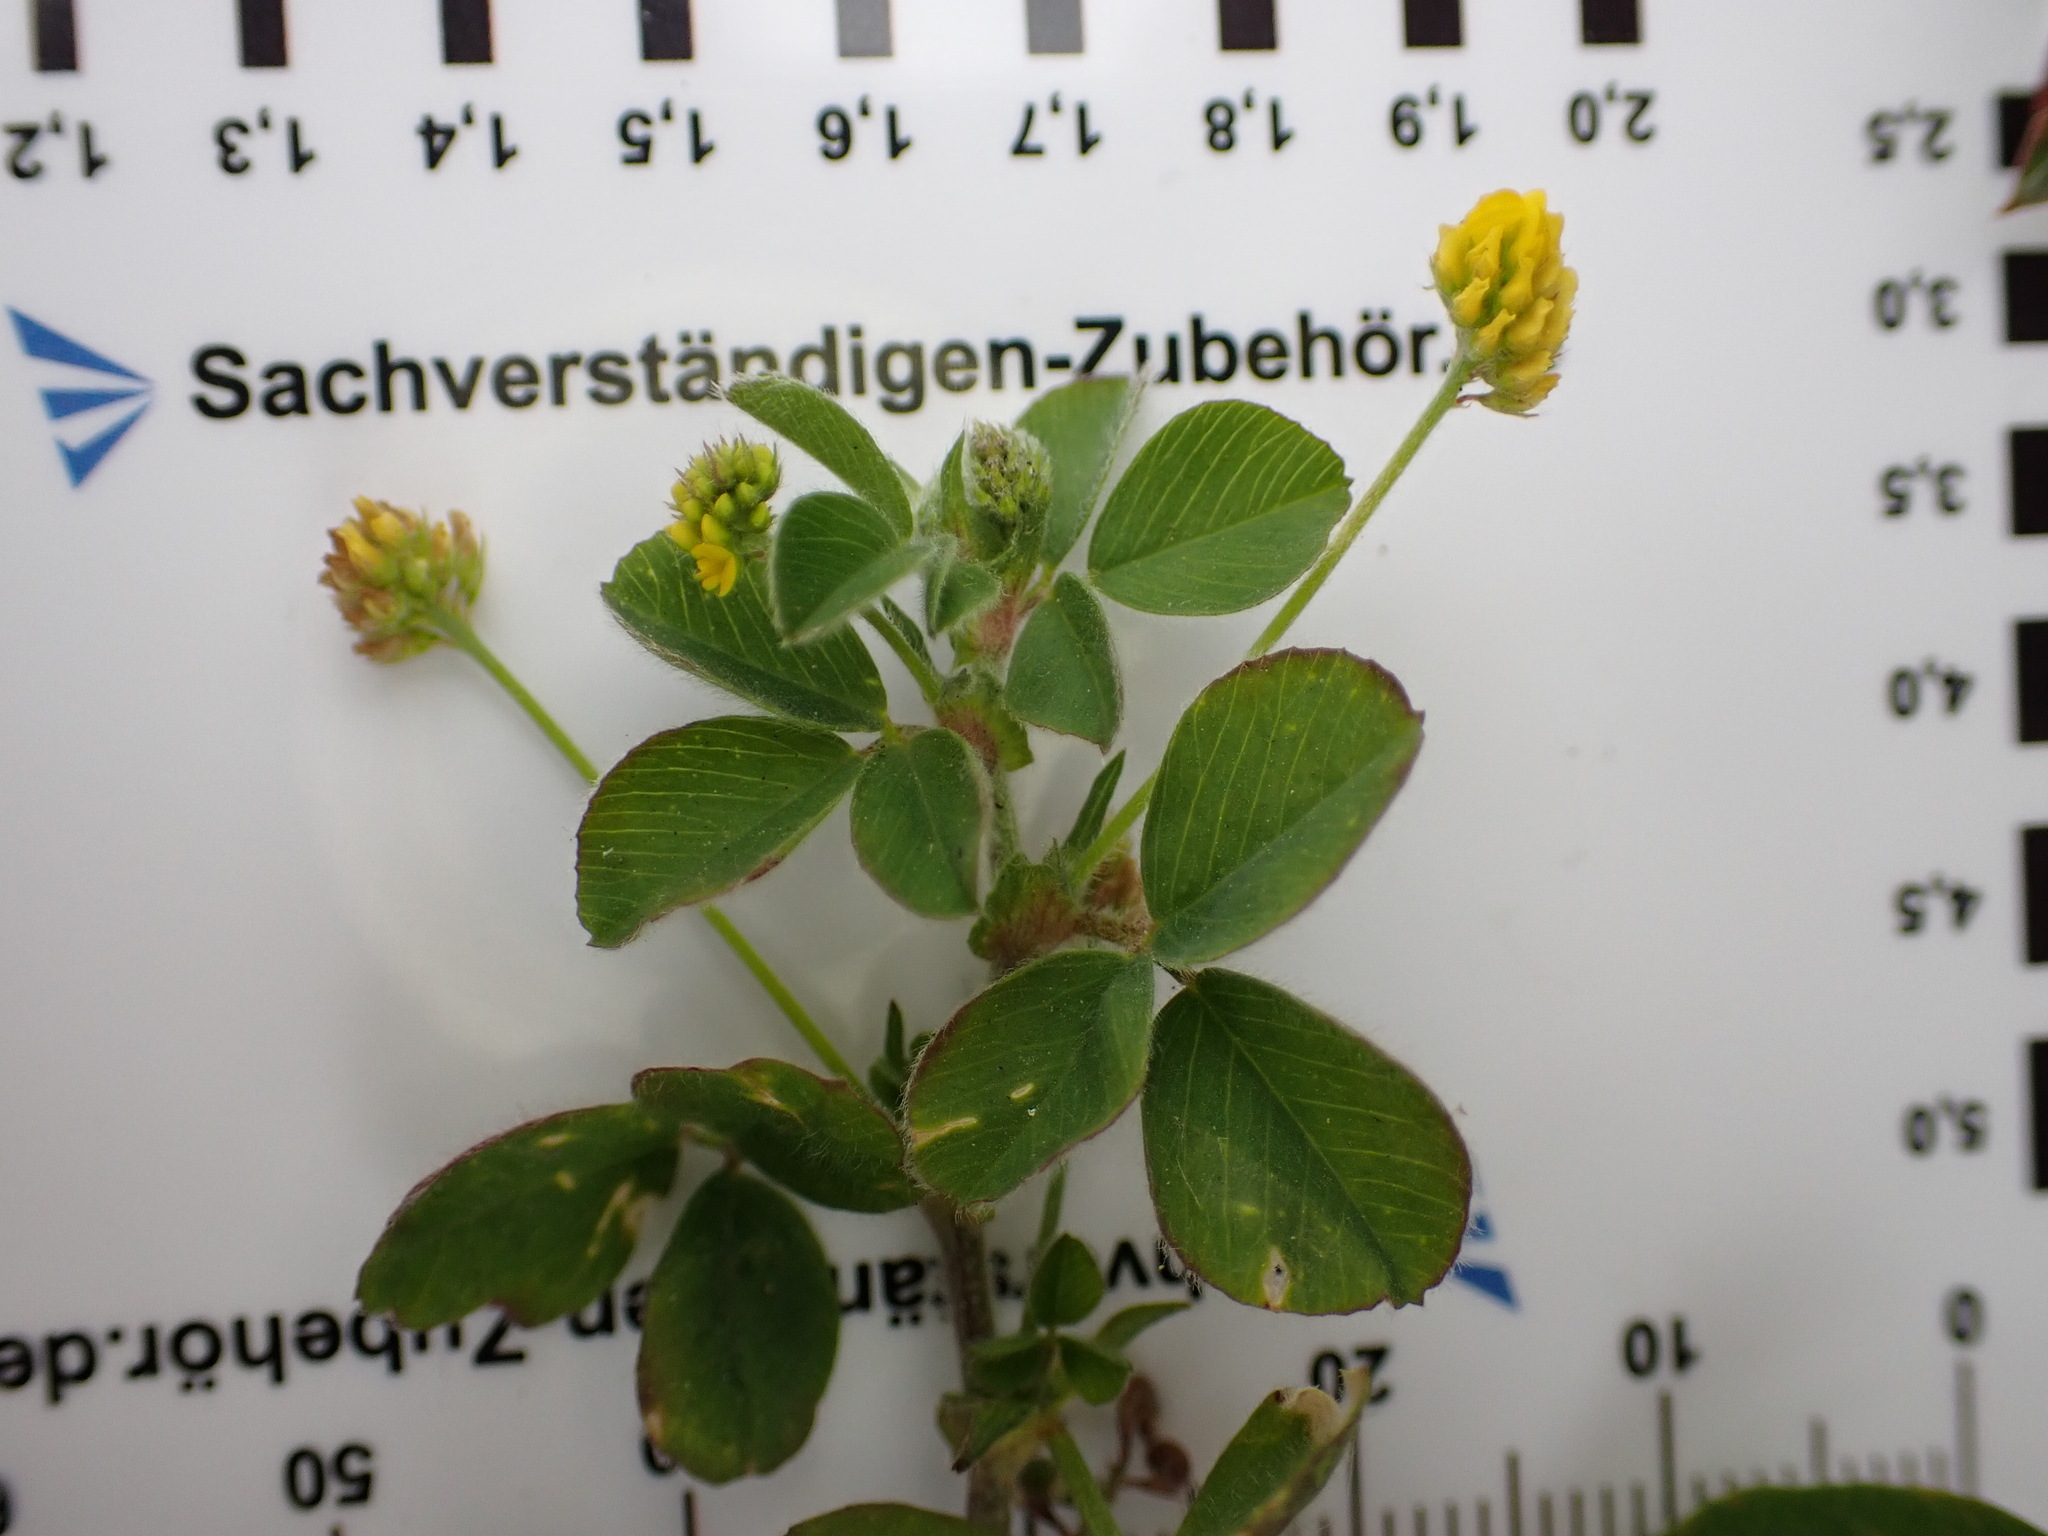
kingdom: Plantae
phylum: Tracheophyta
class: Magnoliopsida
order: Fabales
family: Fabaceae
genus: Medicago
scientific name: Medicago lupulina
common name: Black medick
